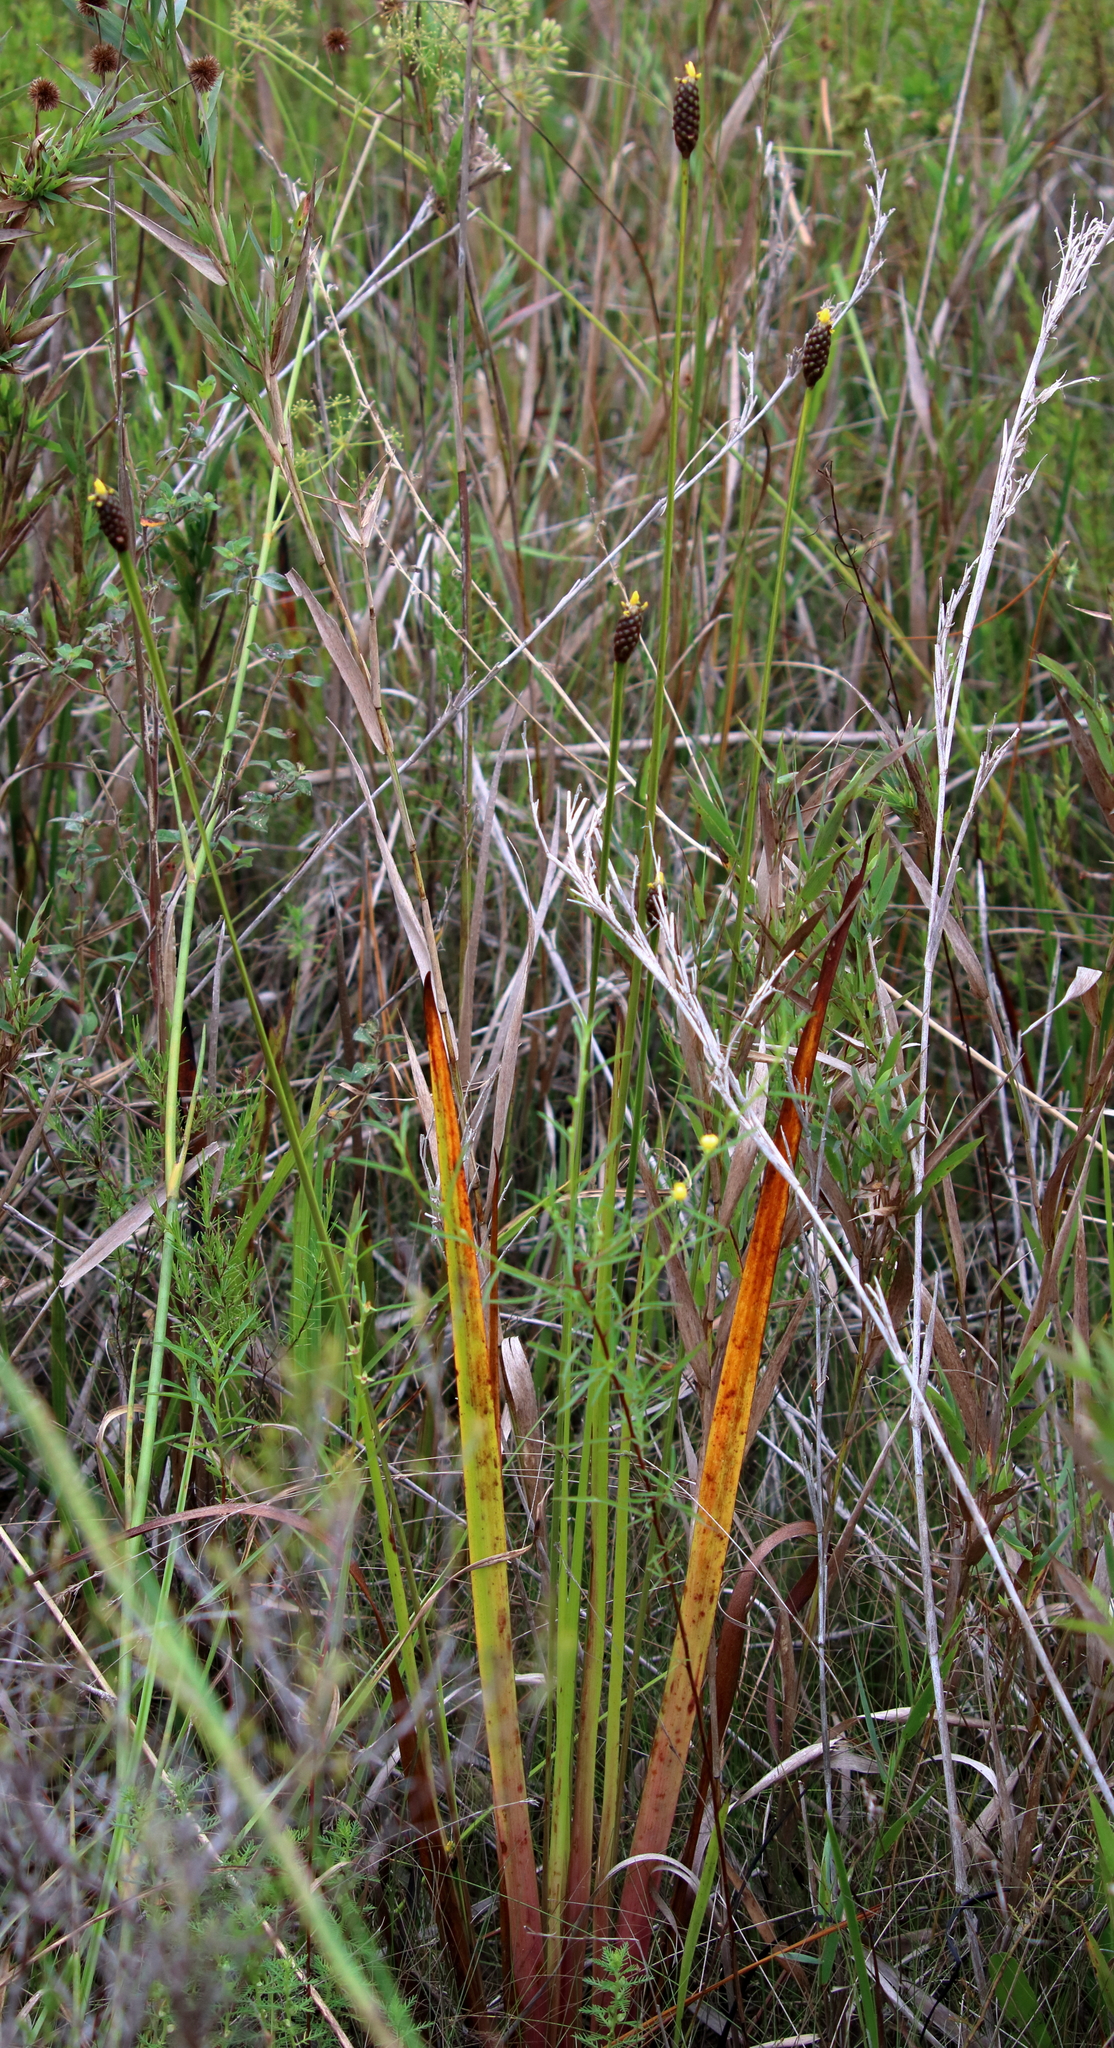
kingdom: Plantae
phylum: Tracheophyta
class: Liliopsida
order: Poales
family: Xyridaceae
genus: Xyris
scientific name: Xyris laxifolia
